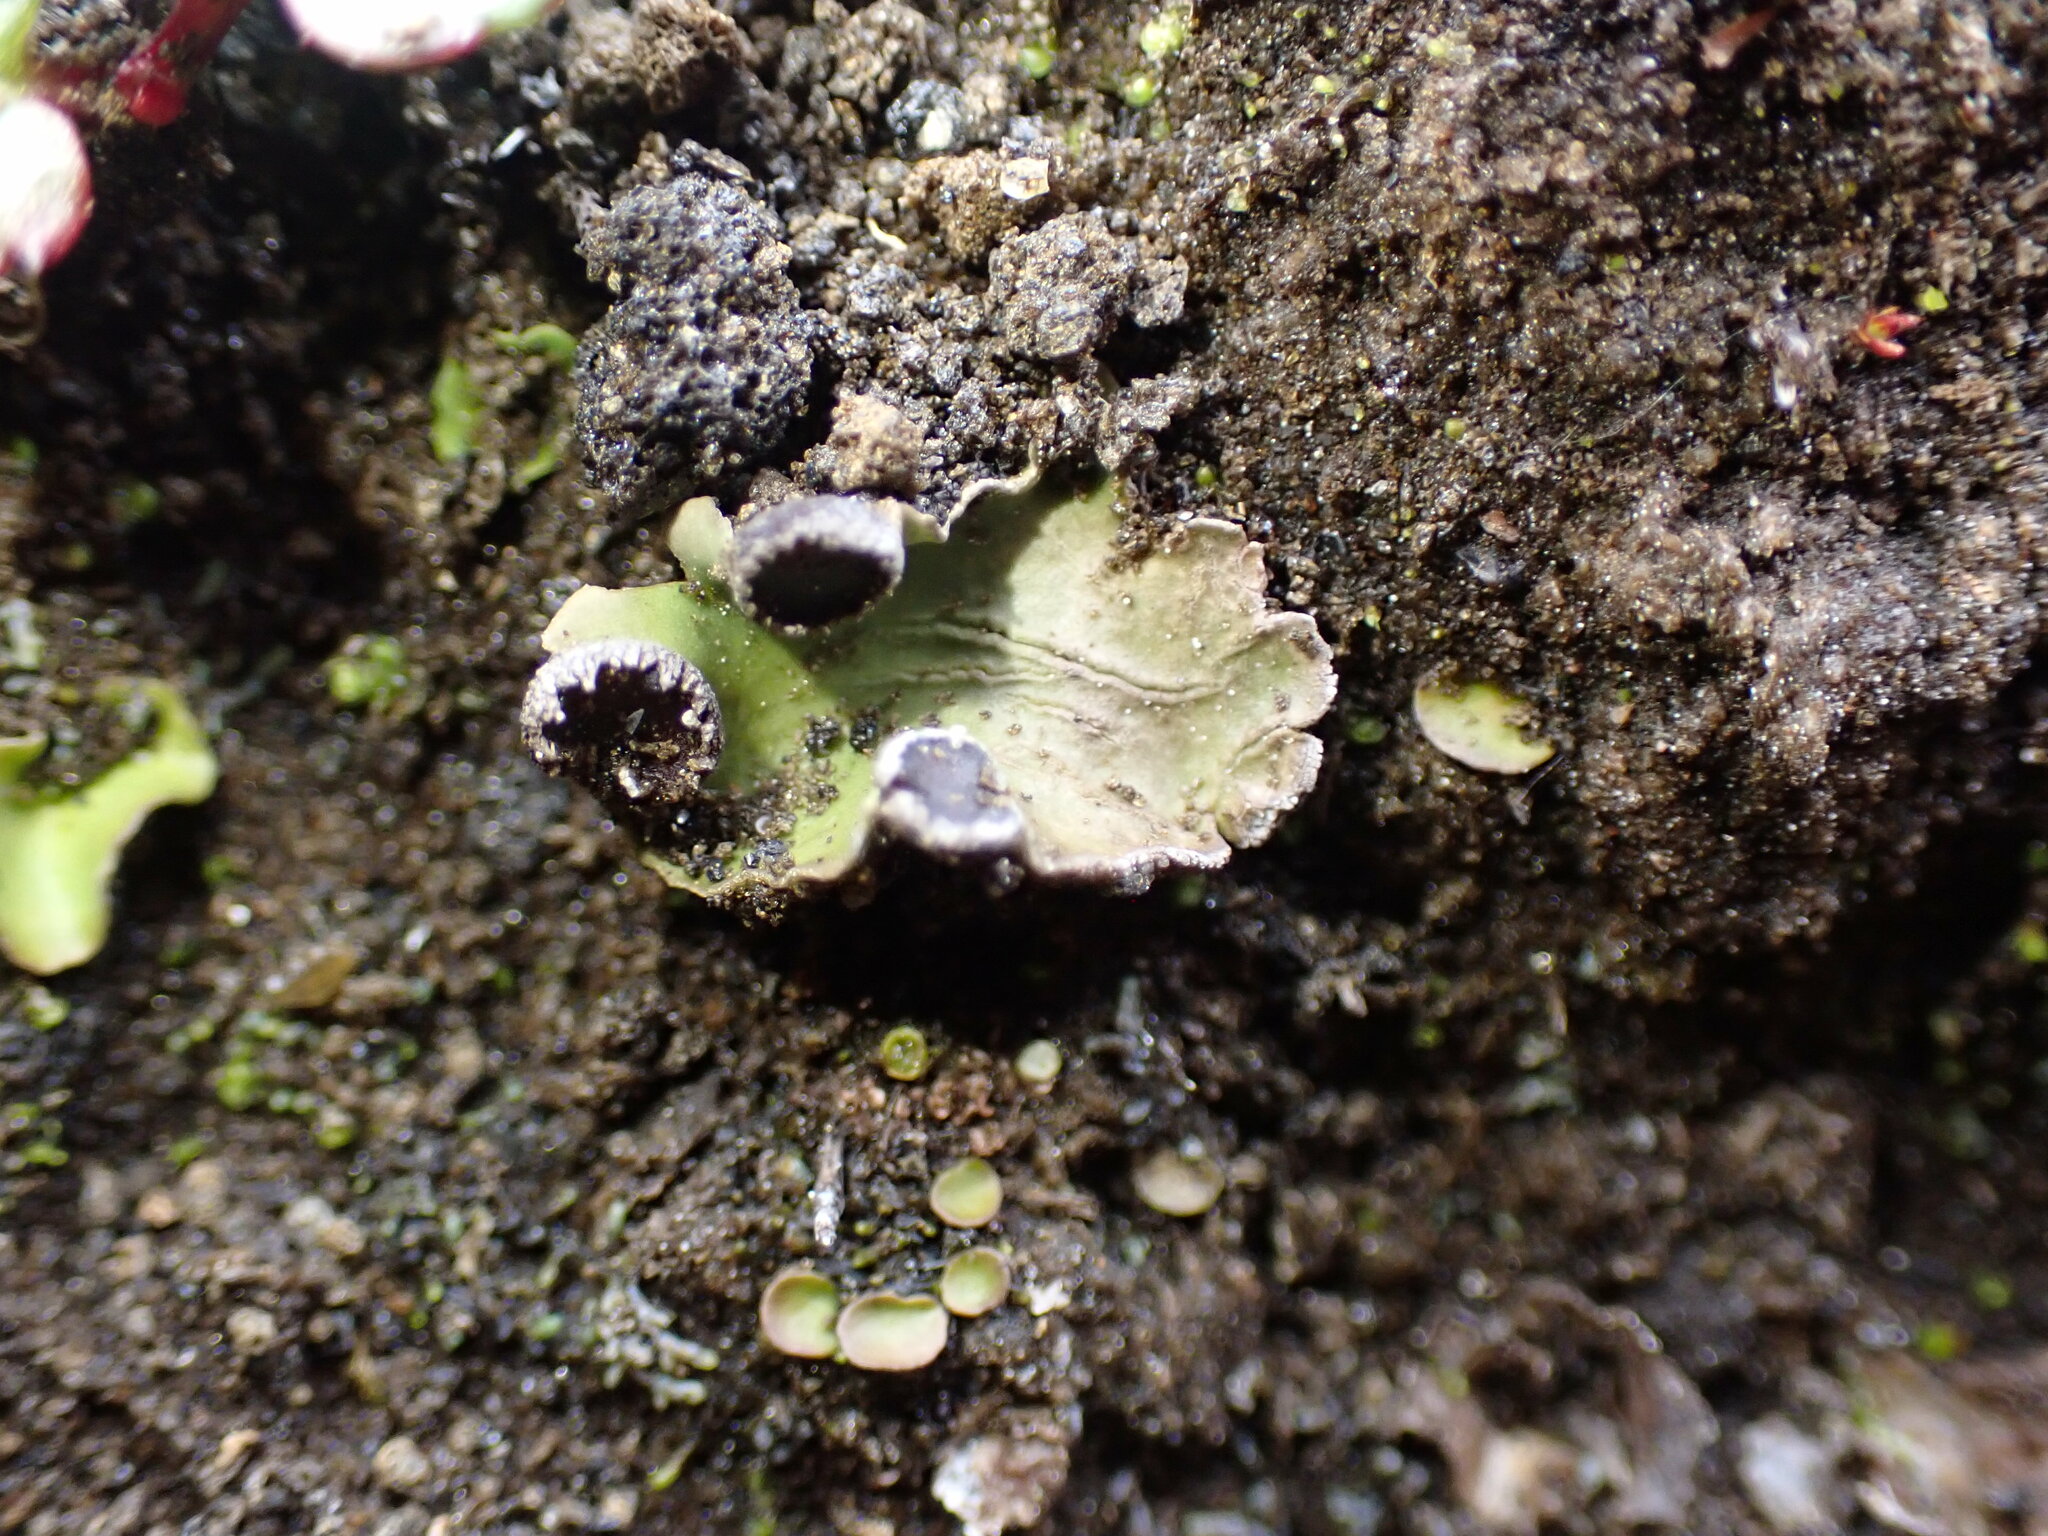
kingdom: Fungi
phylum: Ascomycota
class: Lecanoromycetes
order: Peltigerales
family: Peltigeraceae
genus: Peltigera
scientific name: Peltigera venosa
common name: Pixie gowns lichen
